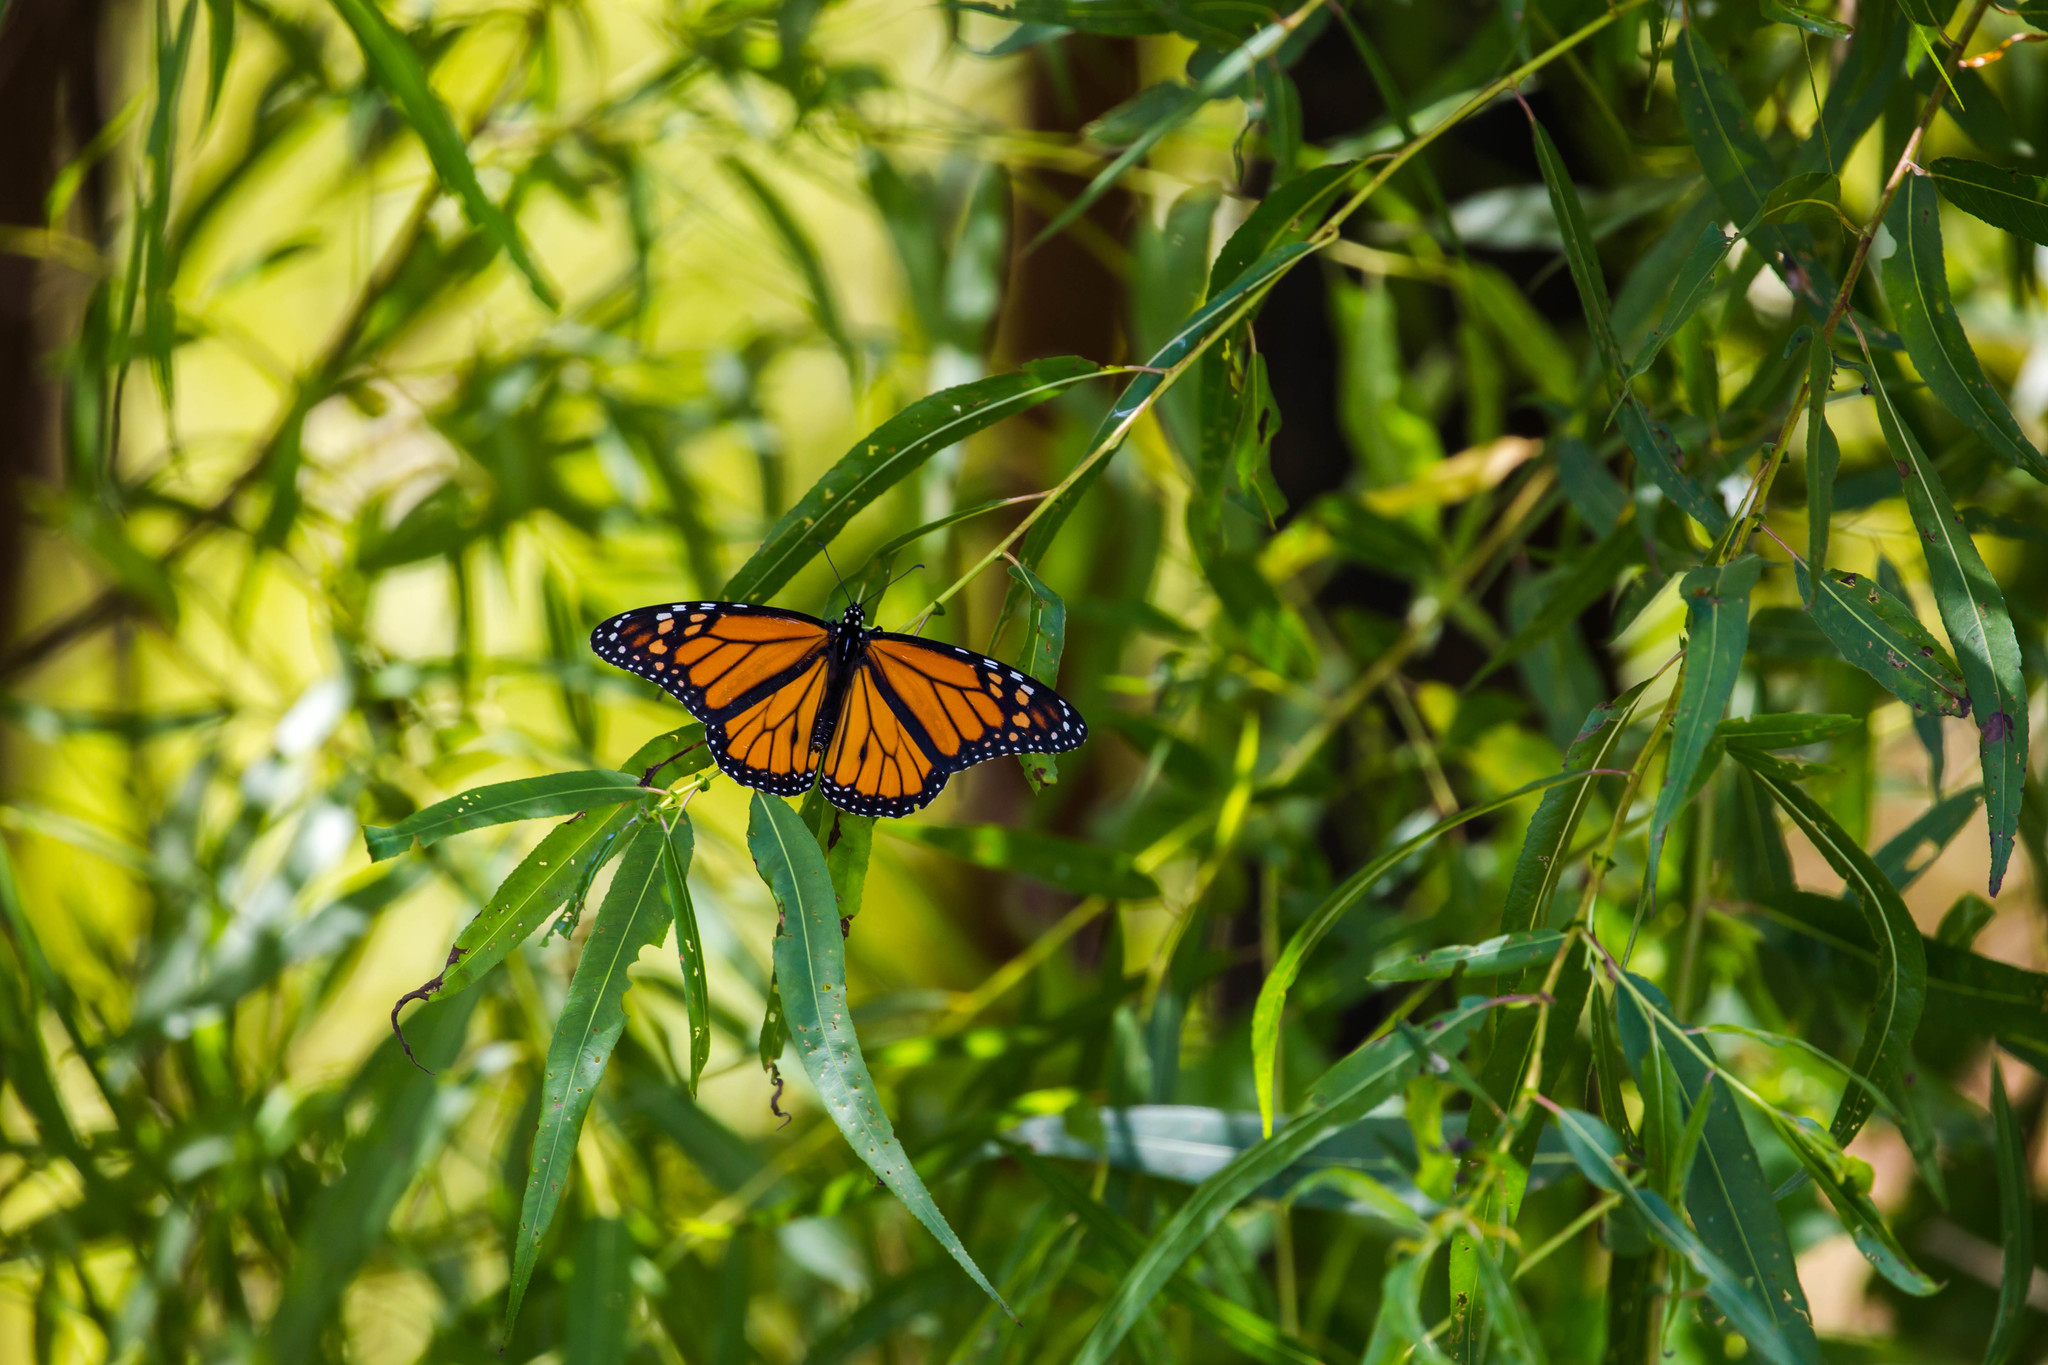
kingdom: Animalia
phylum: Arthropoda
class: Insecta
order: Lepidoptera
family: Nymphalidae
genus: Danaus
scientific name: Danaus plexippus
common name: Monarch
